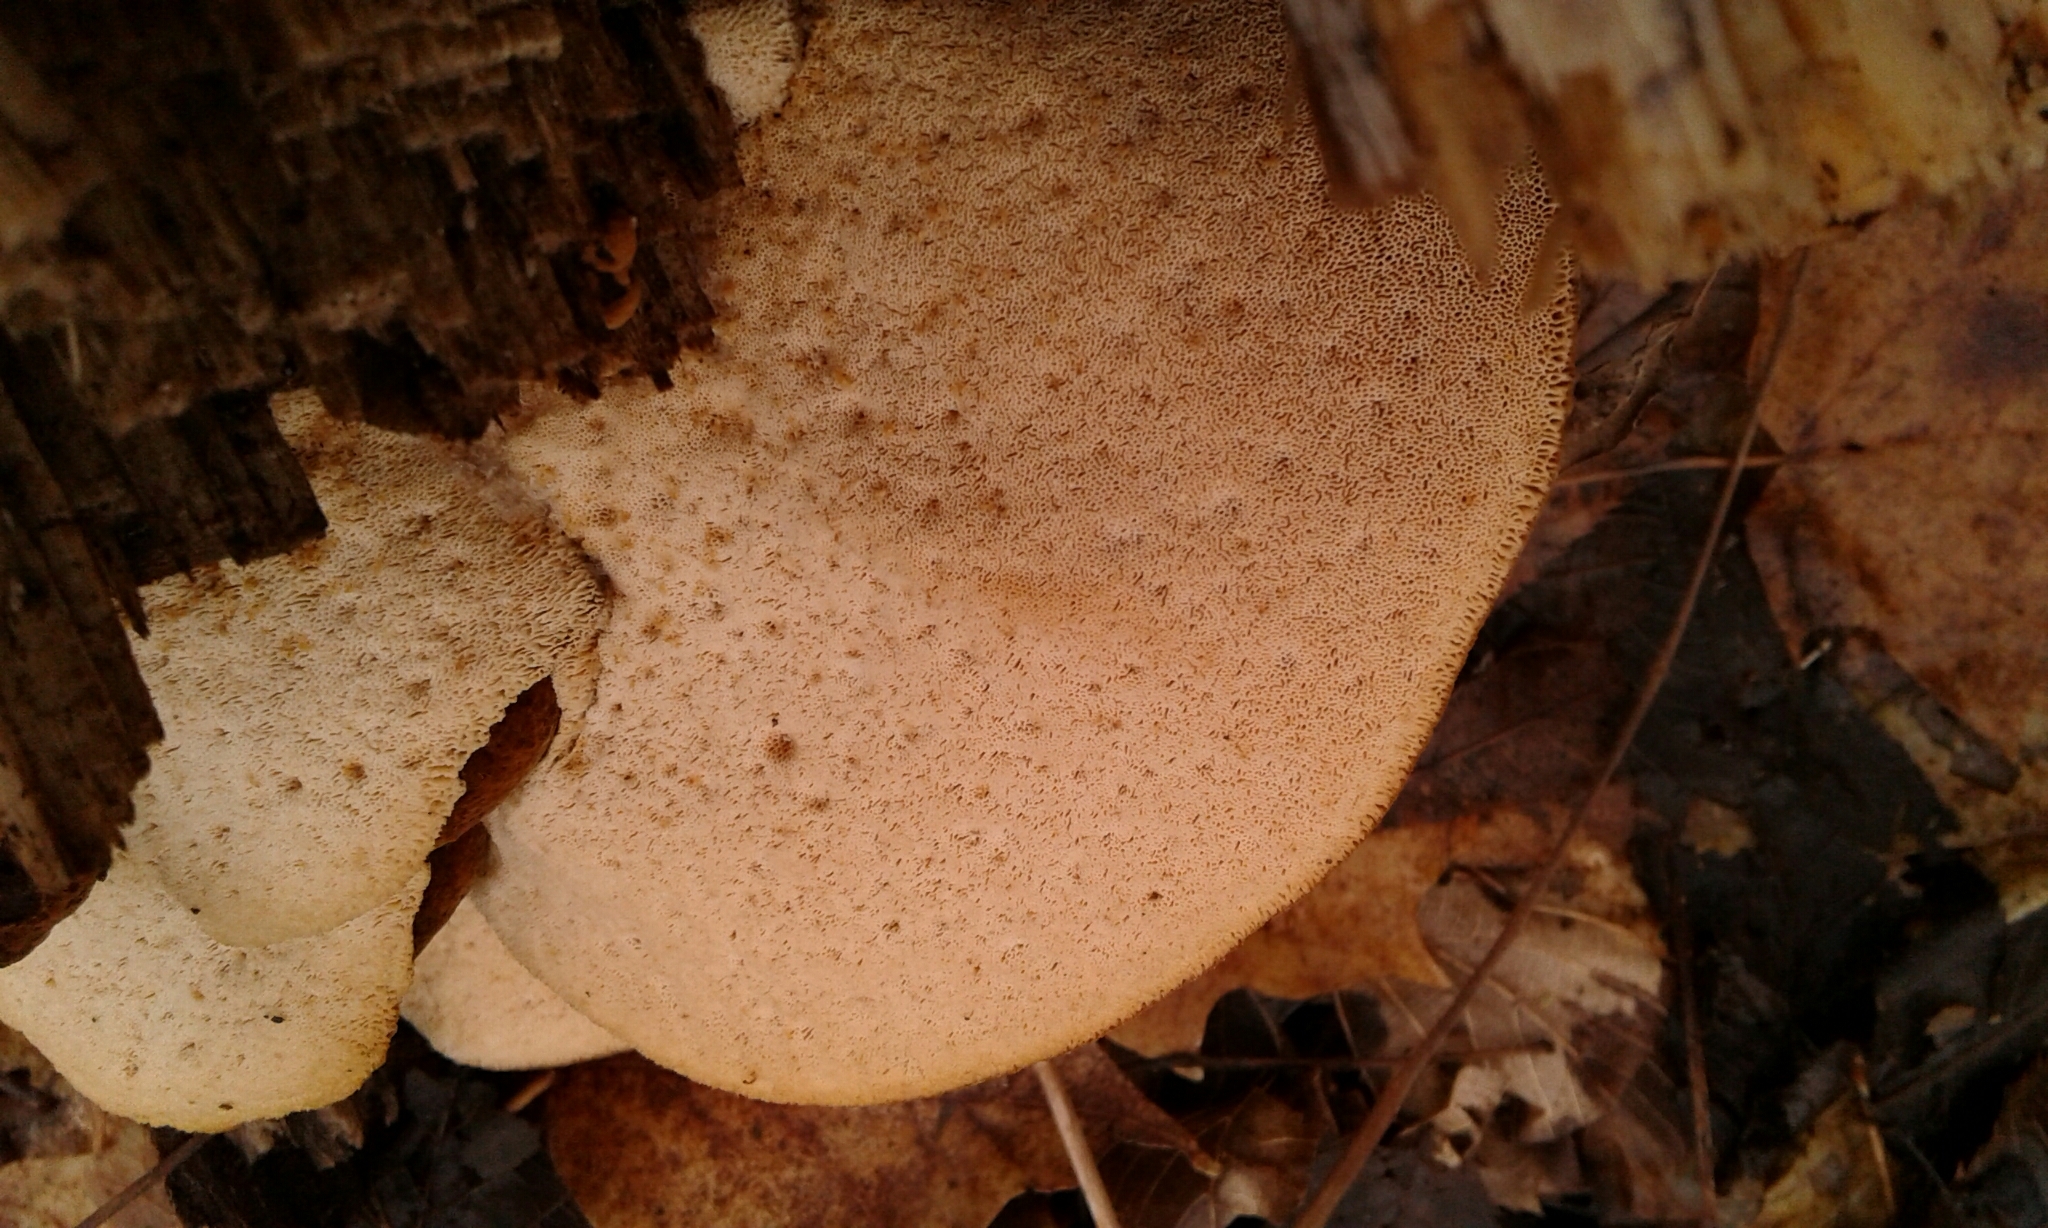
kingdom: Fungi
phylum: Basidiomycota
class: Agaricomycetes
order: Polyporales
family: Ischnodermataceae
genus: Ischnoderma
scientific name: Ischnoderma resinosum
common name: Resinous polypore
